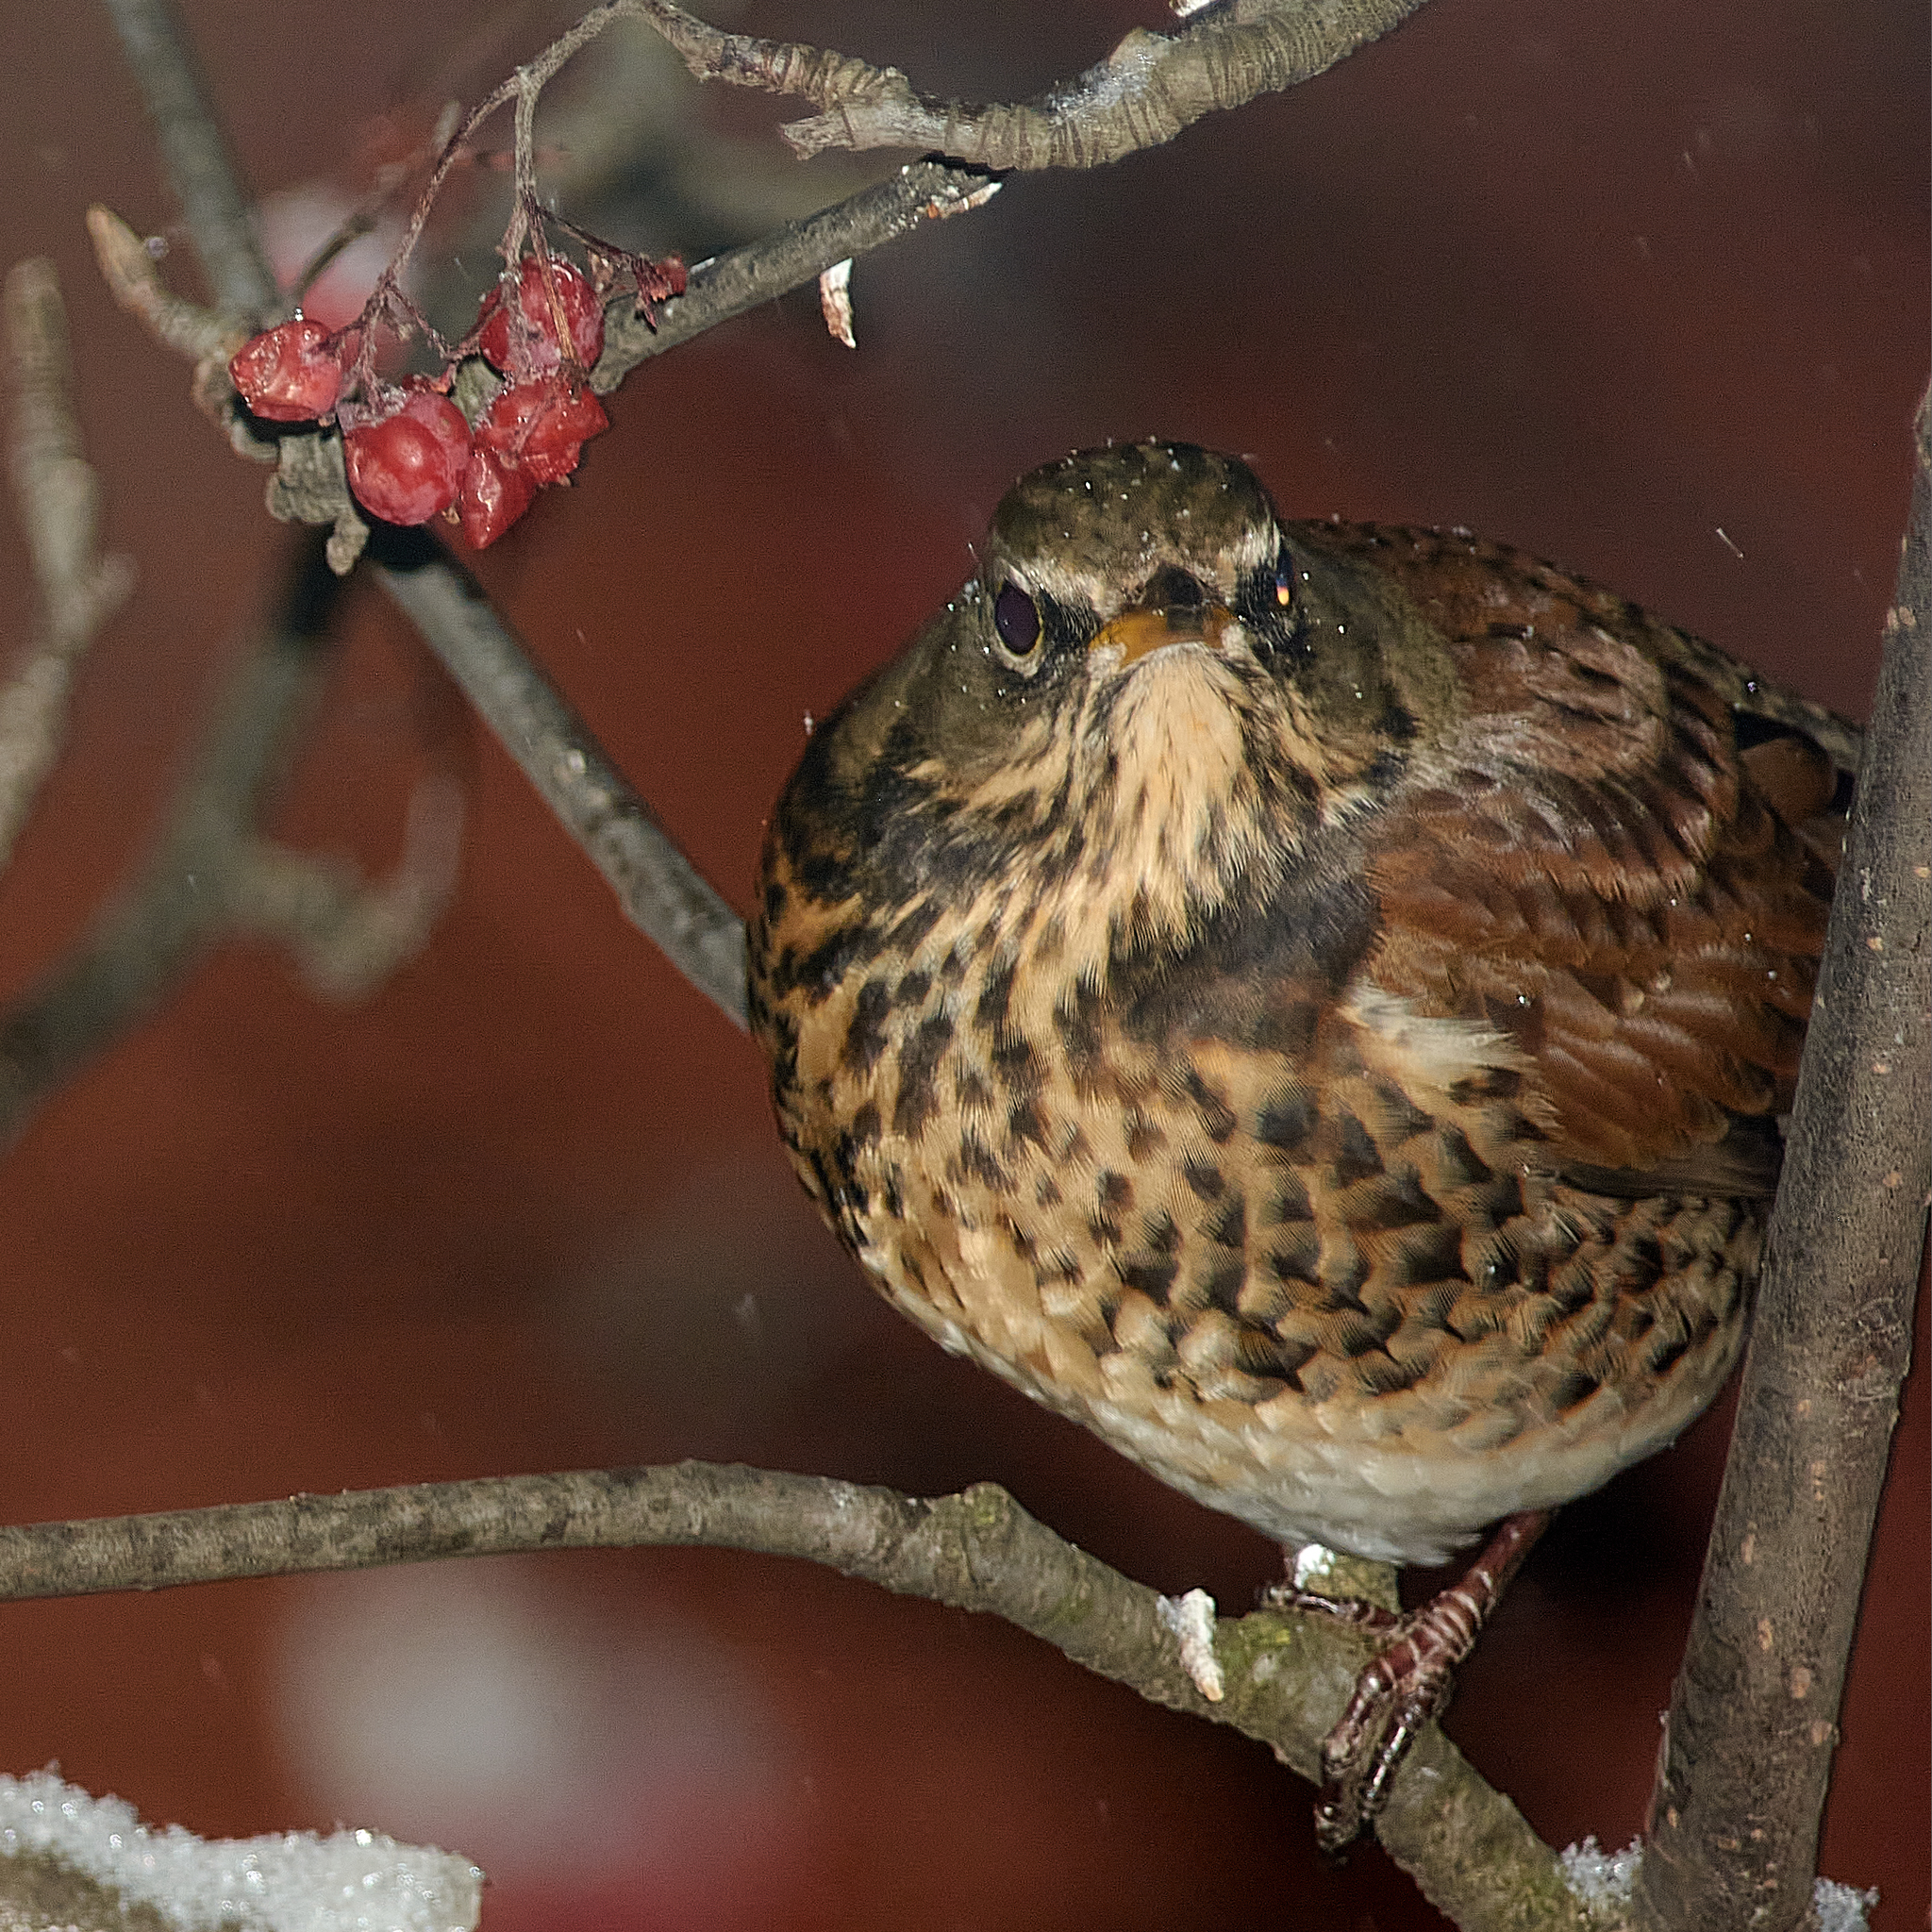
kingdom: Animalia
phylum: Chordata
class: Aves
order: Passeriformes
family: Turdidae
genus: Turdus
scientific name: Turdus pilaris
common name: Fieldfare
